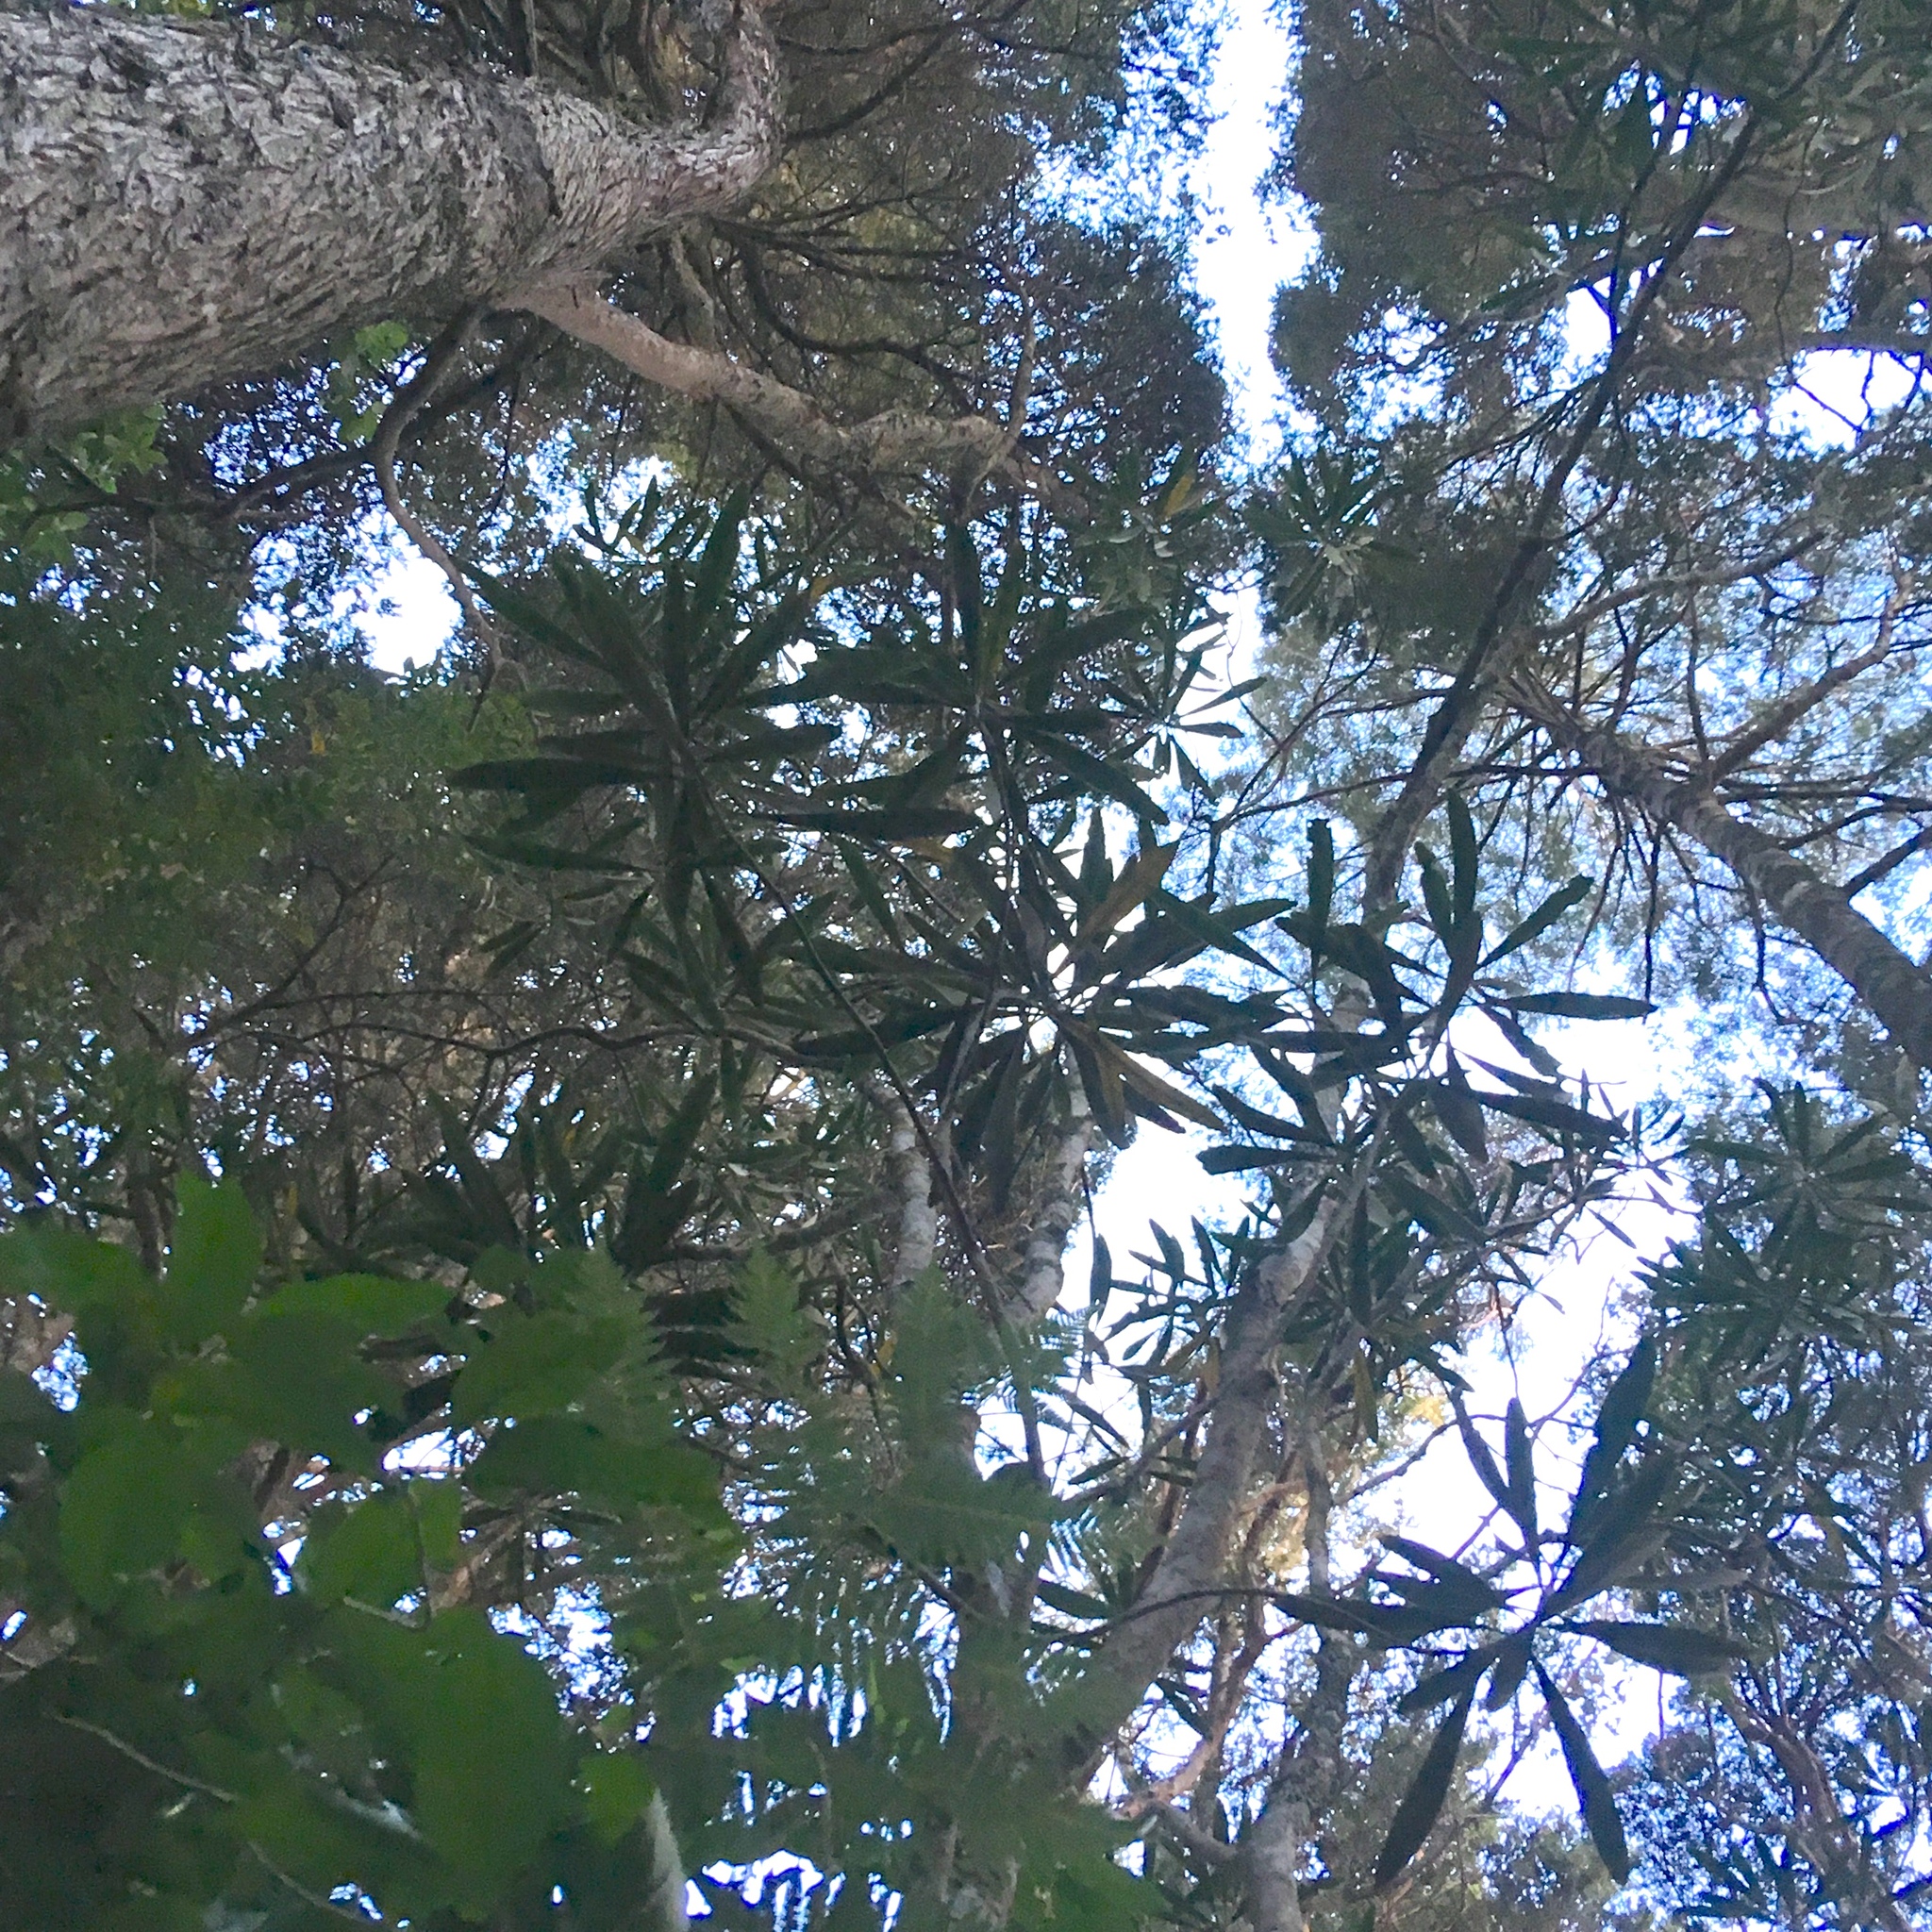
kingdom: Plantae
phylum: Tracheophyta
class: Magnoliopsida
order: Apiales
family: Araliaceae
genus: Pseudopanax
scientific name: Pseudopanax crassifolius
